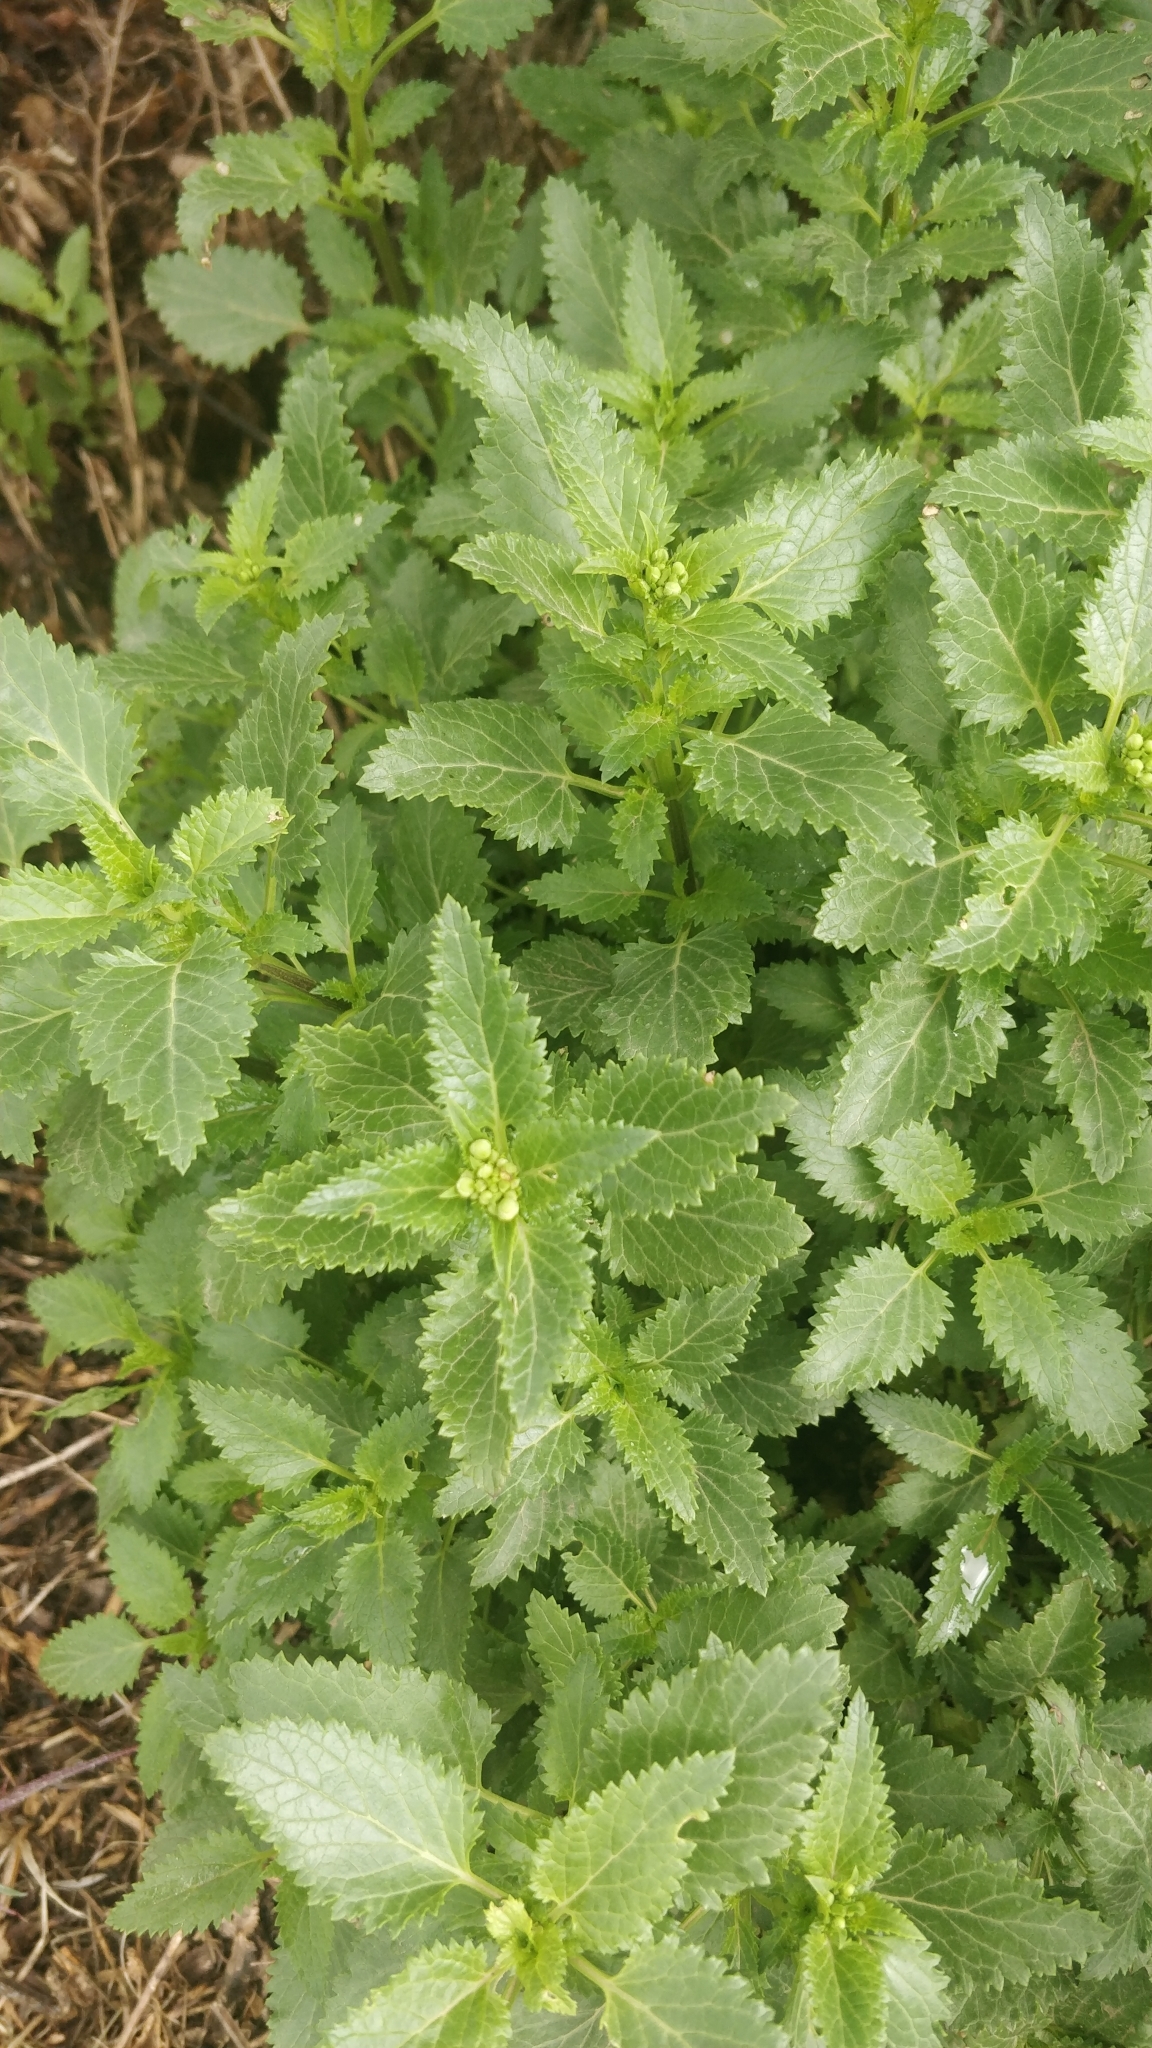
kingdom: Plantae
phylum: Tracheophyta
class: Magnoliopsida
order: Lamiales
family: Scrophulariaceae
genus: Scrophularia
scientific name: Scrophularia glabrata
